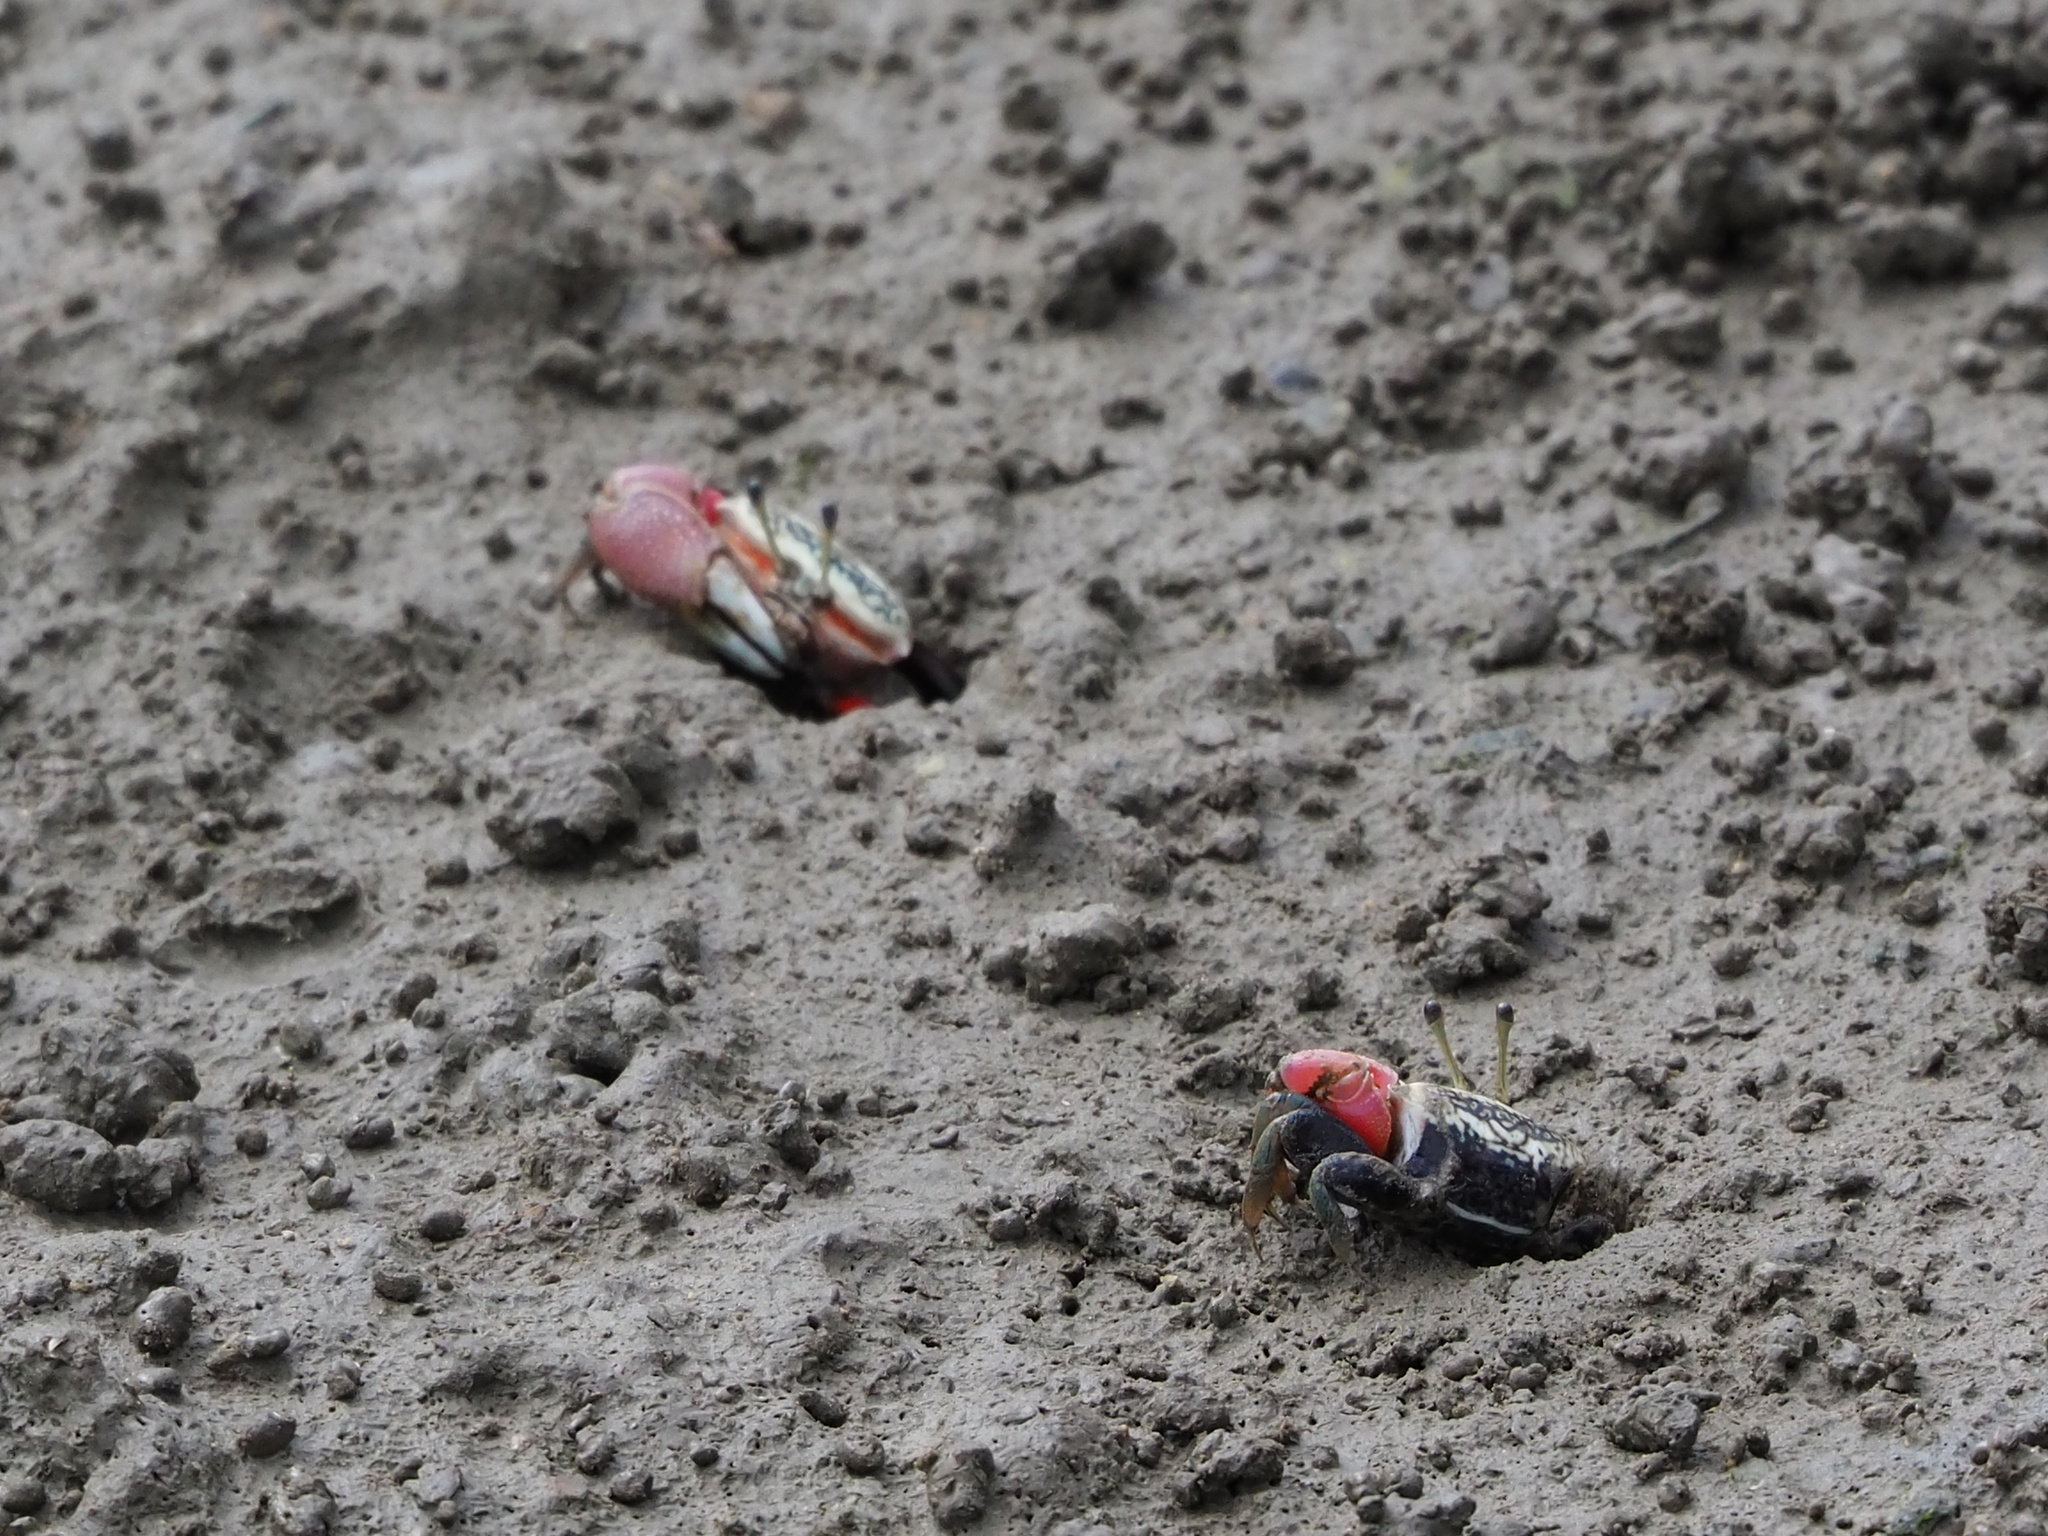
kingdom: Animalia
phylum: Arthropoda
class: Malacostraca
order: Decapoda
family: Ocypodidae
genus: Tubuca
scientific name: Tubuca arcuata
